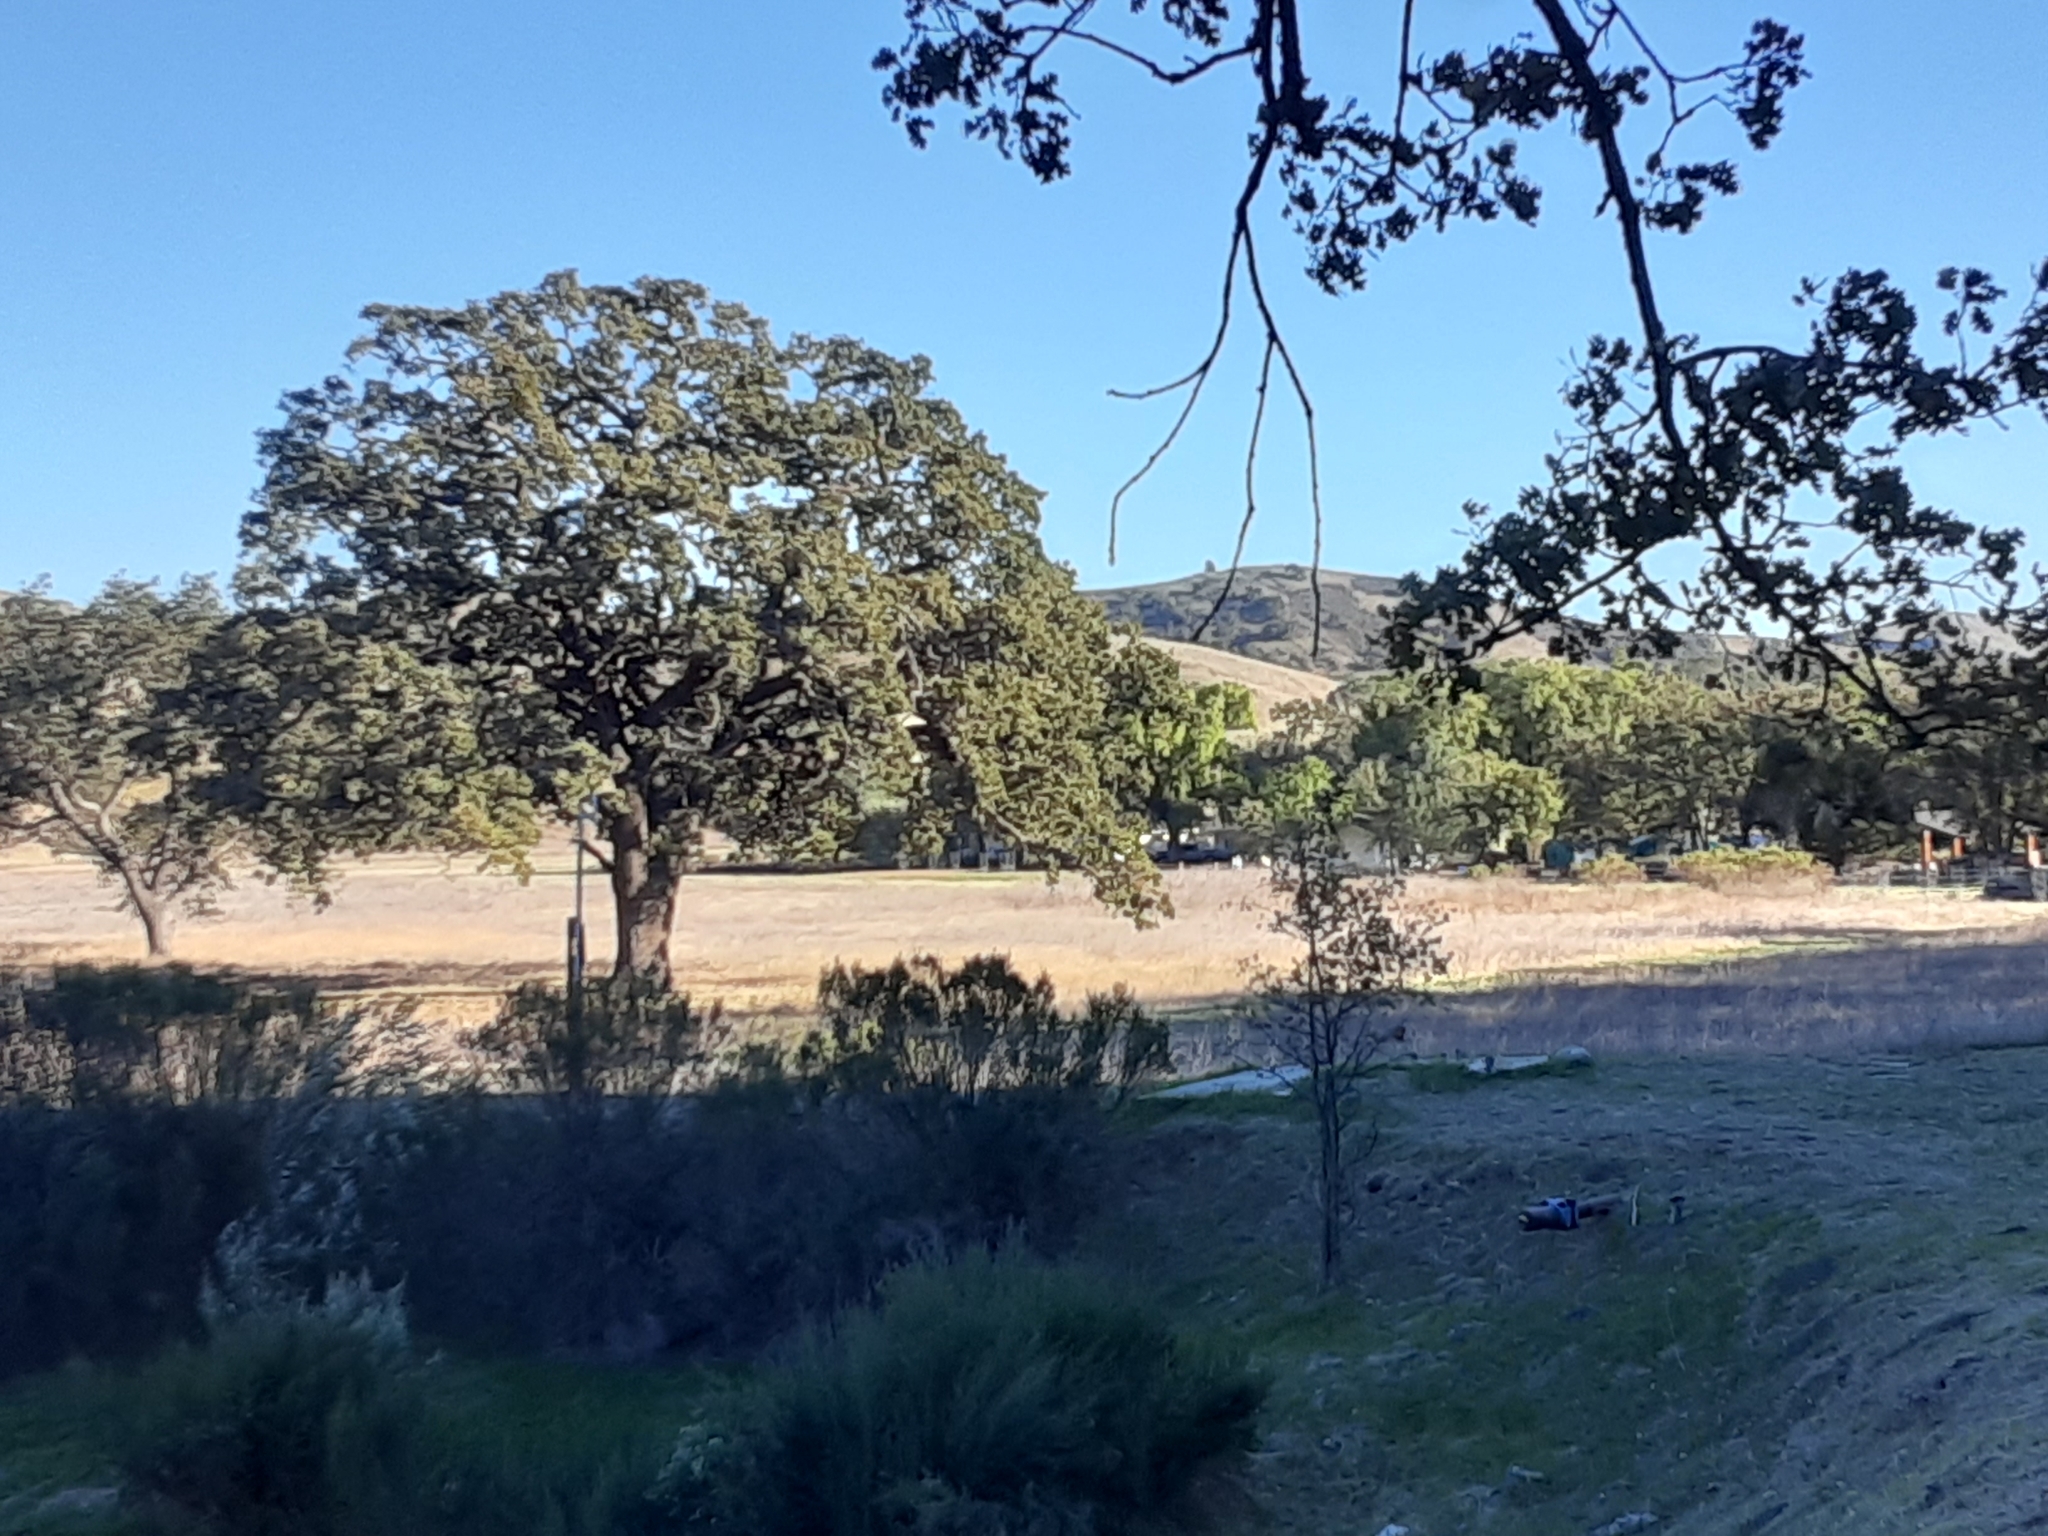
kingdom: Plantae
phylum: Tracheophyta
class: Magnoliopsida
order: Fagales
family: Fagaceae
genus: Quercus
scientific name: Quercus lobata
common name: Valley oak
